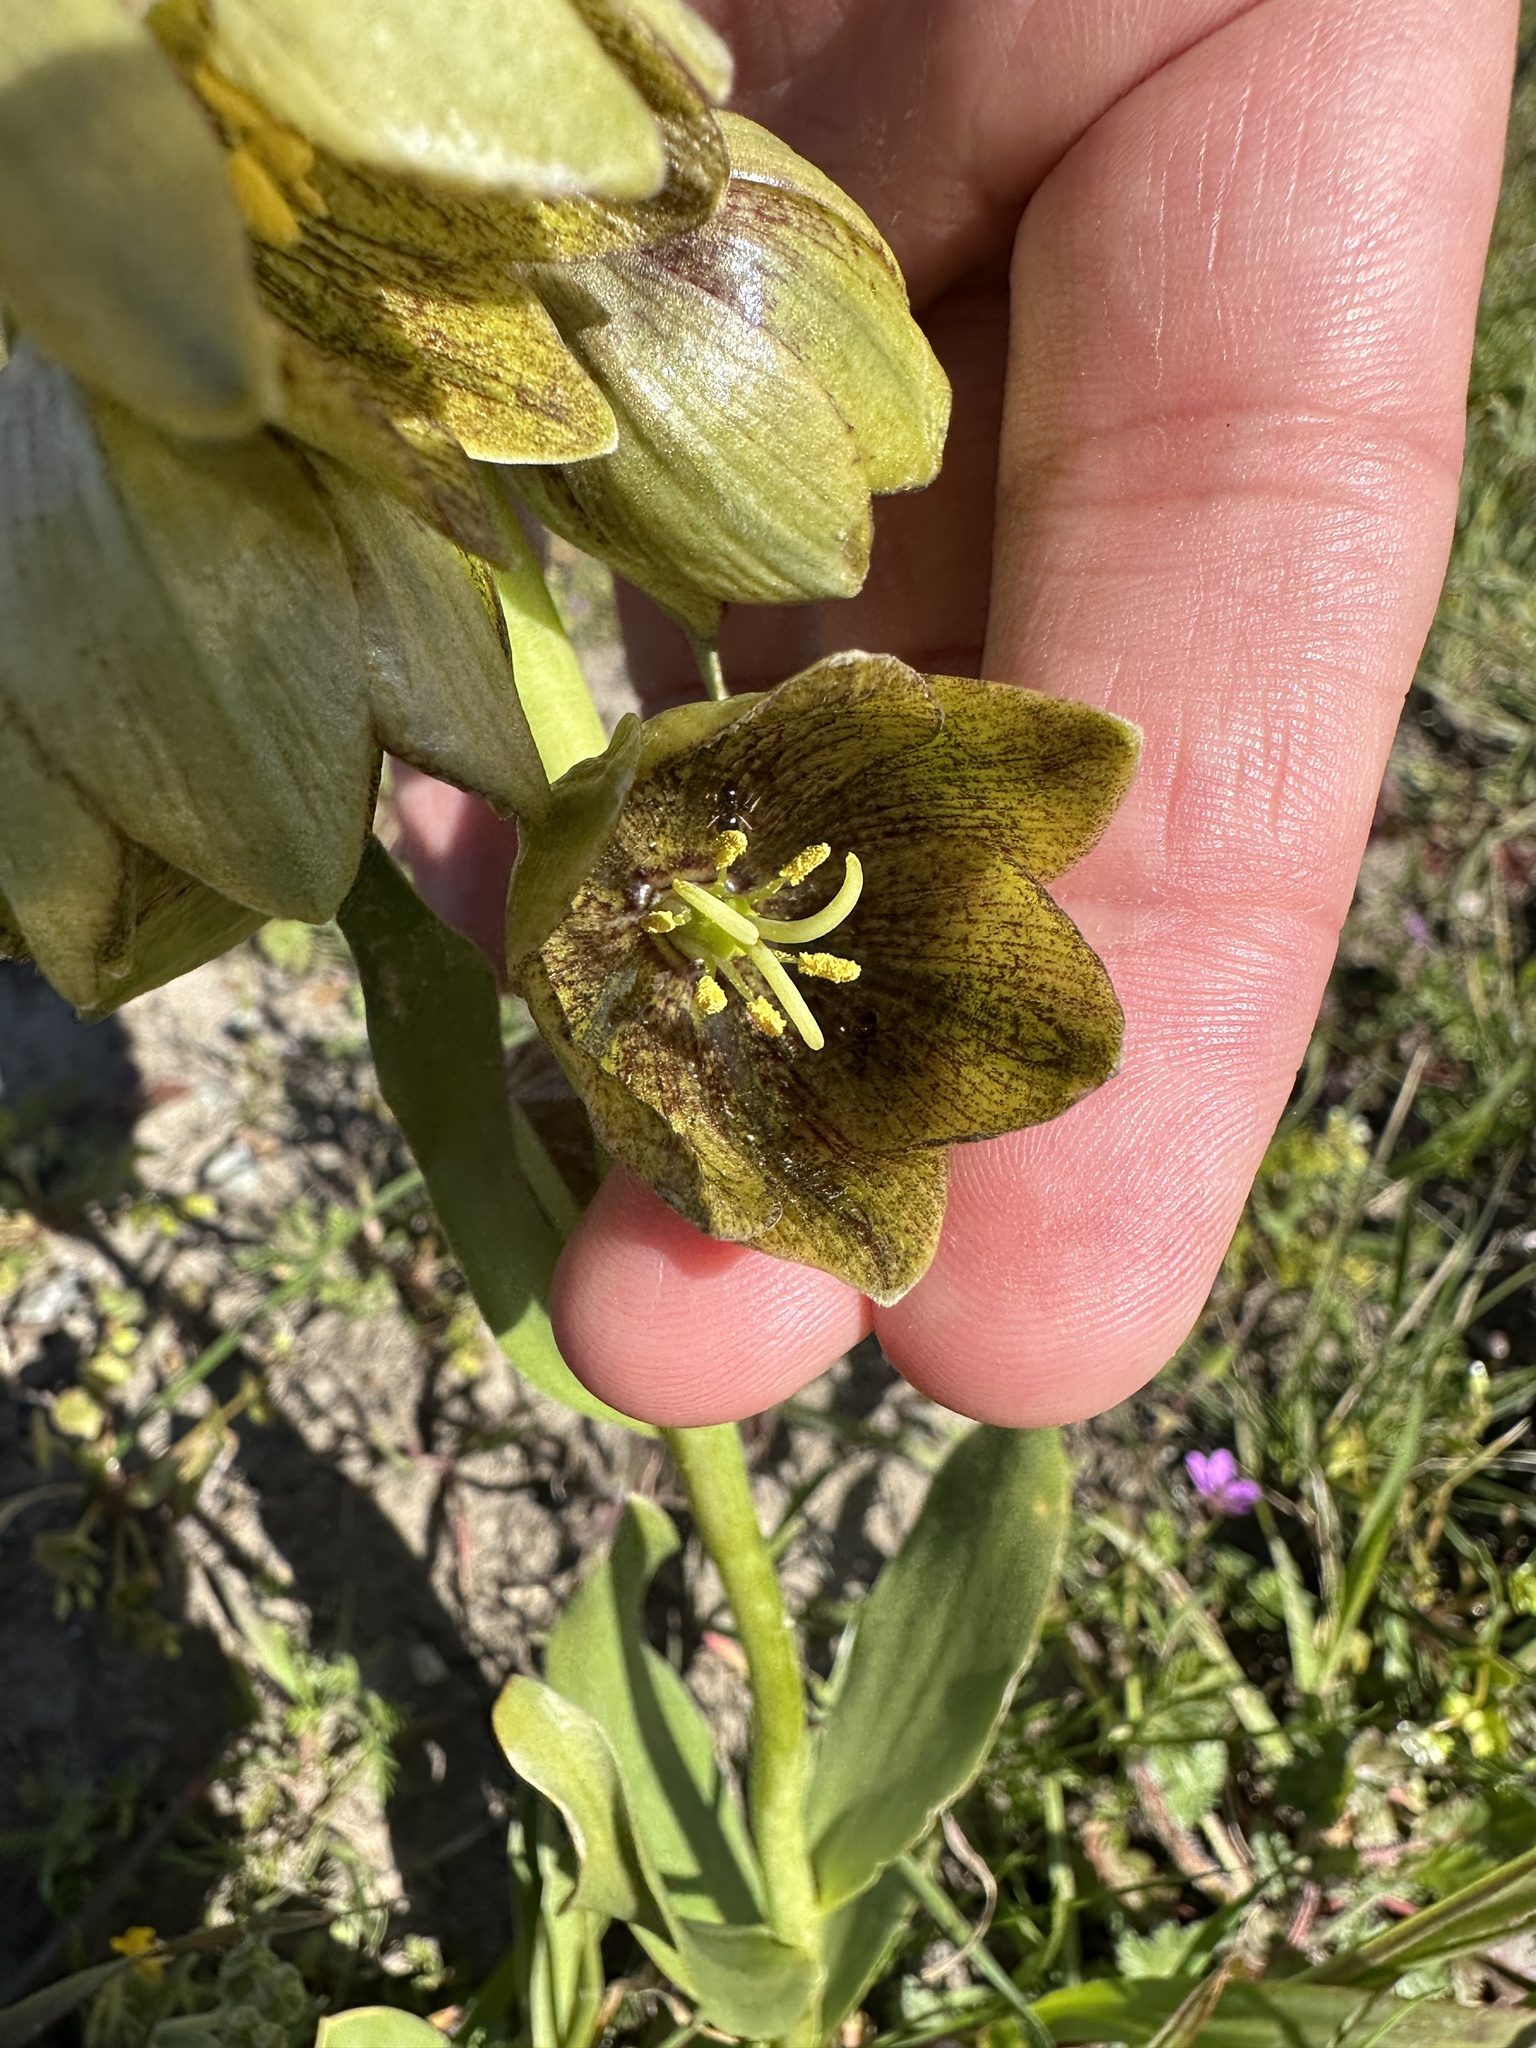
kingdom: Plantae
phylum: Tracheophyta
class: Liliopsida
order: Liliales
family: Liliaceae
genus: Fritillaria
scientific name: Fritillaria agrestis
